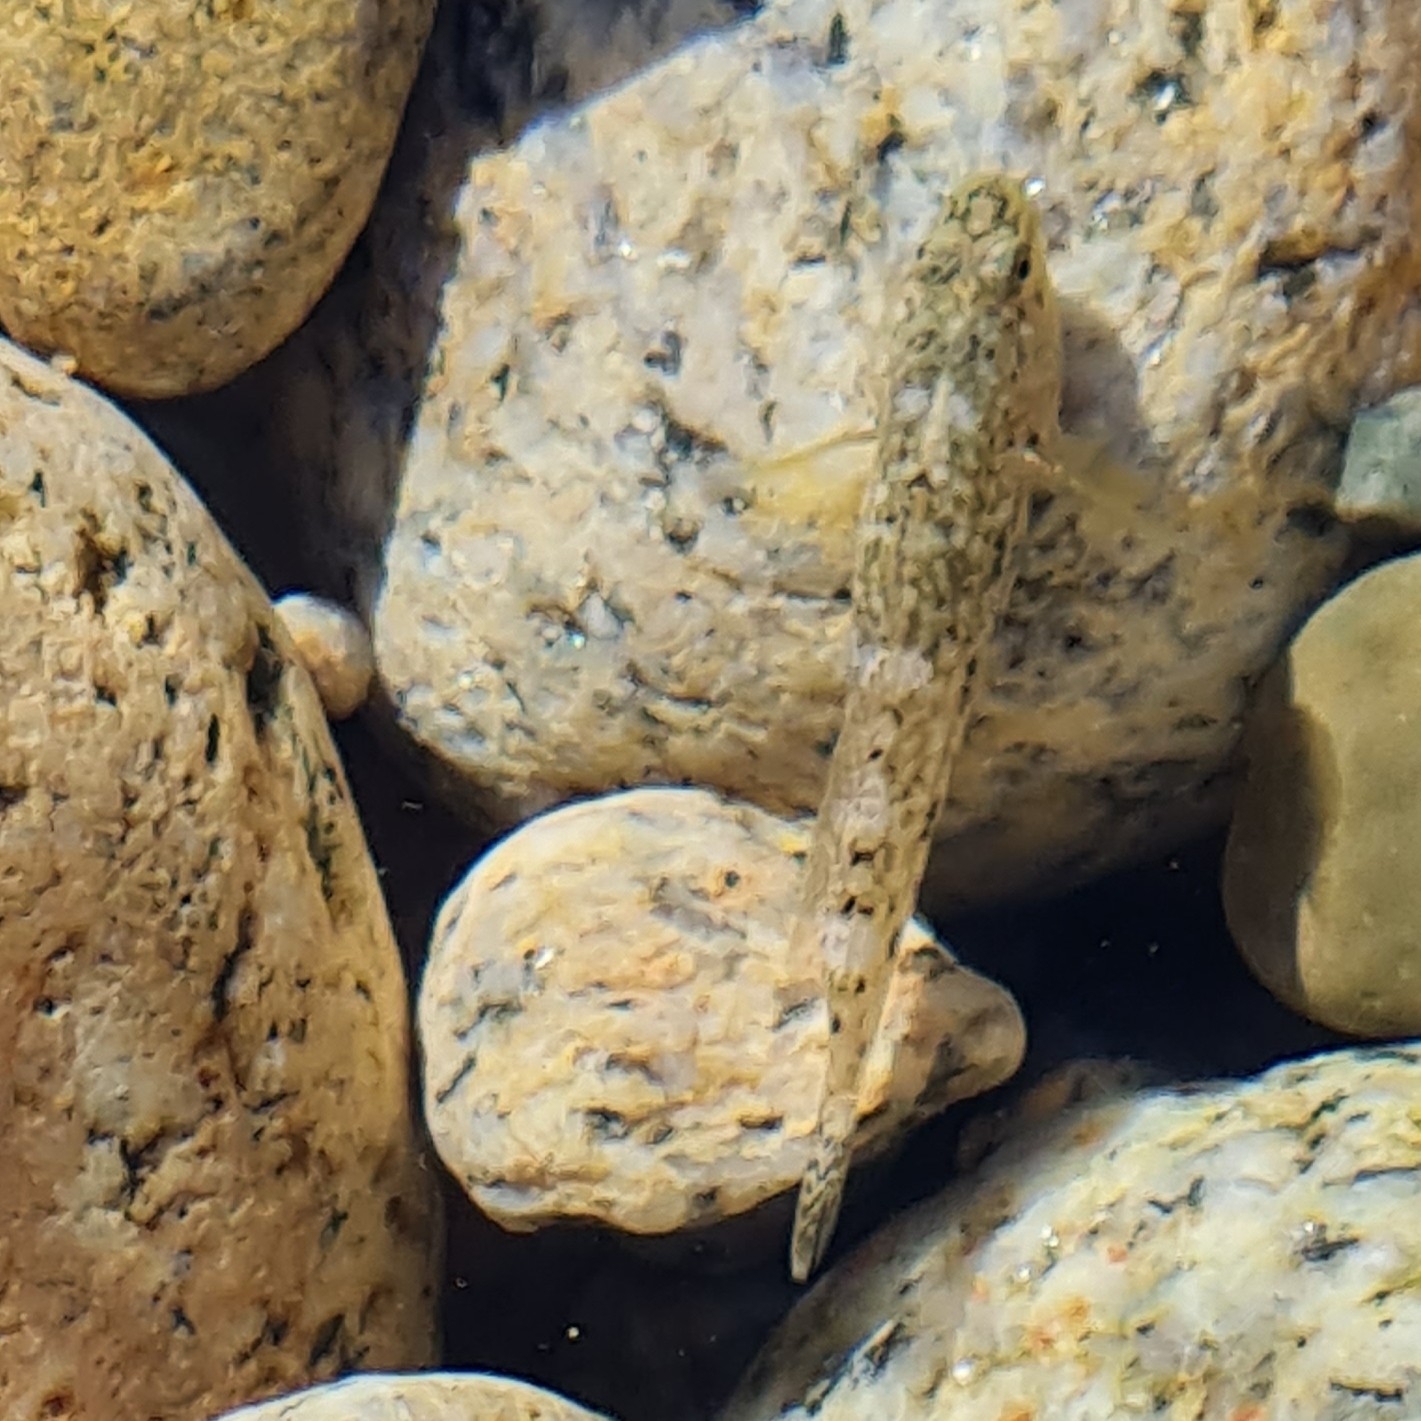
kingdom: Animalia
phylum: Chordata
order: Perciformes
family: Gobiidae
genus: Gobius
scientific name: Gobius cobitis
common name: Giant goby
